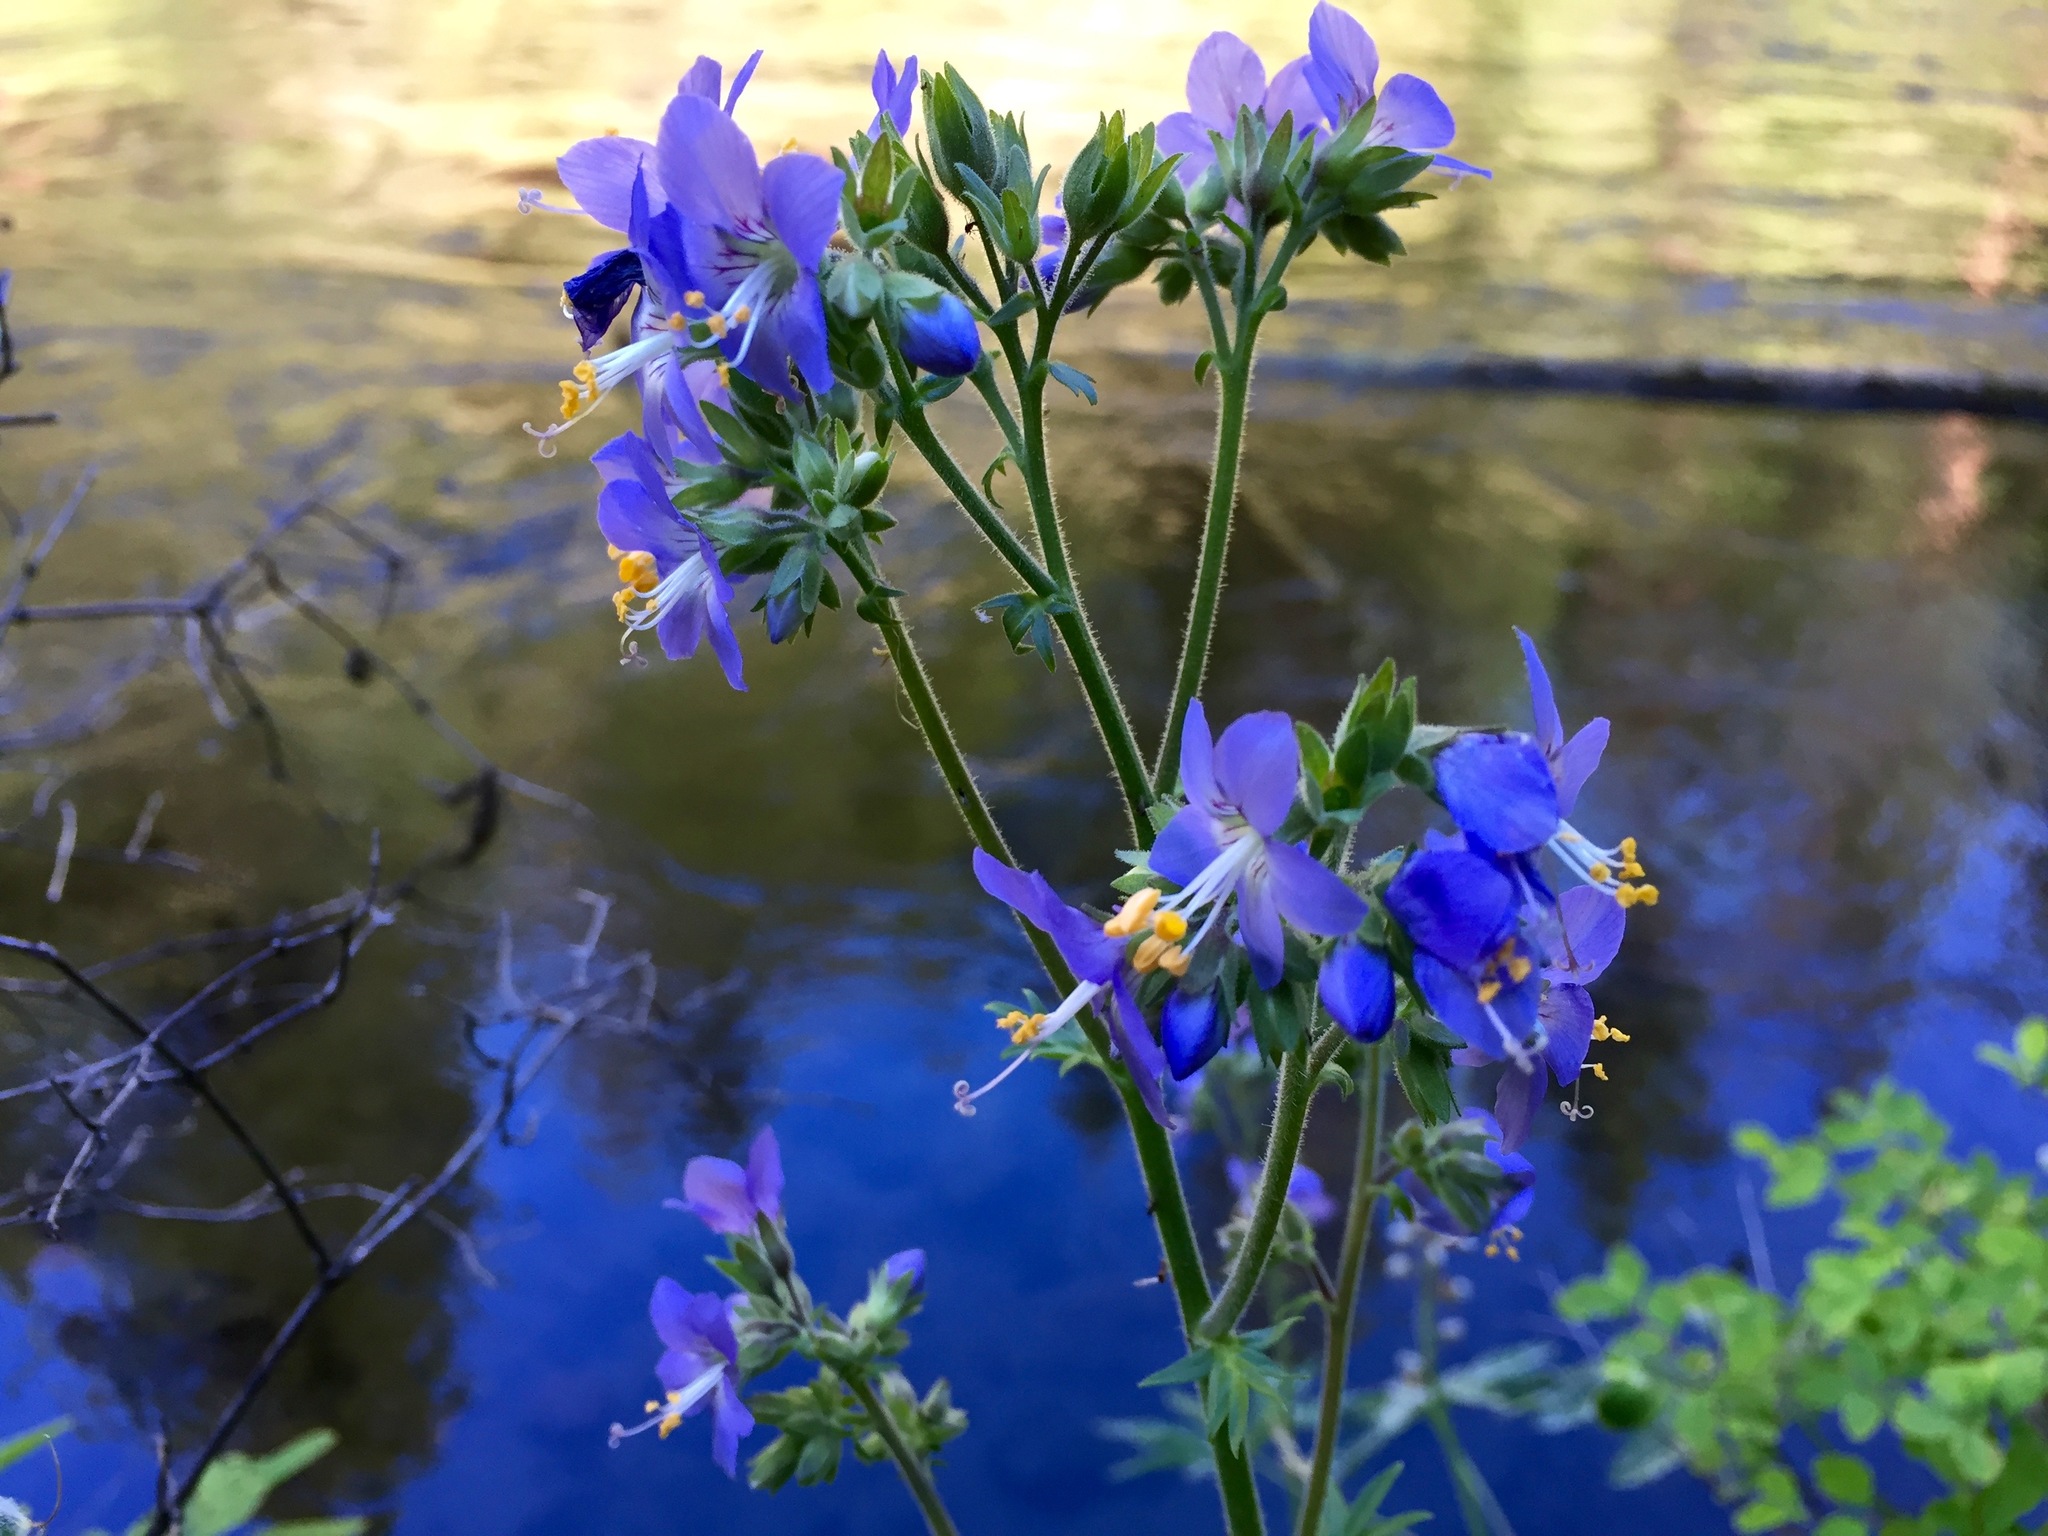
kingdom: Plantae
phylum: Tracheophyta
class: Magnoliopsida
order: Ericales
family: Polemoniaceae
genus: Polemonium
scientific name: Polemonium occidentale
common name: Western jacob's-ladder
